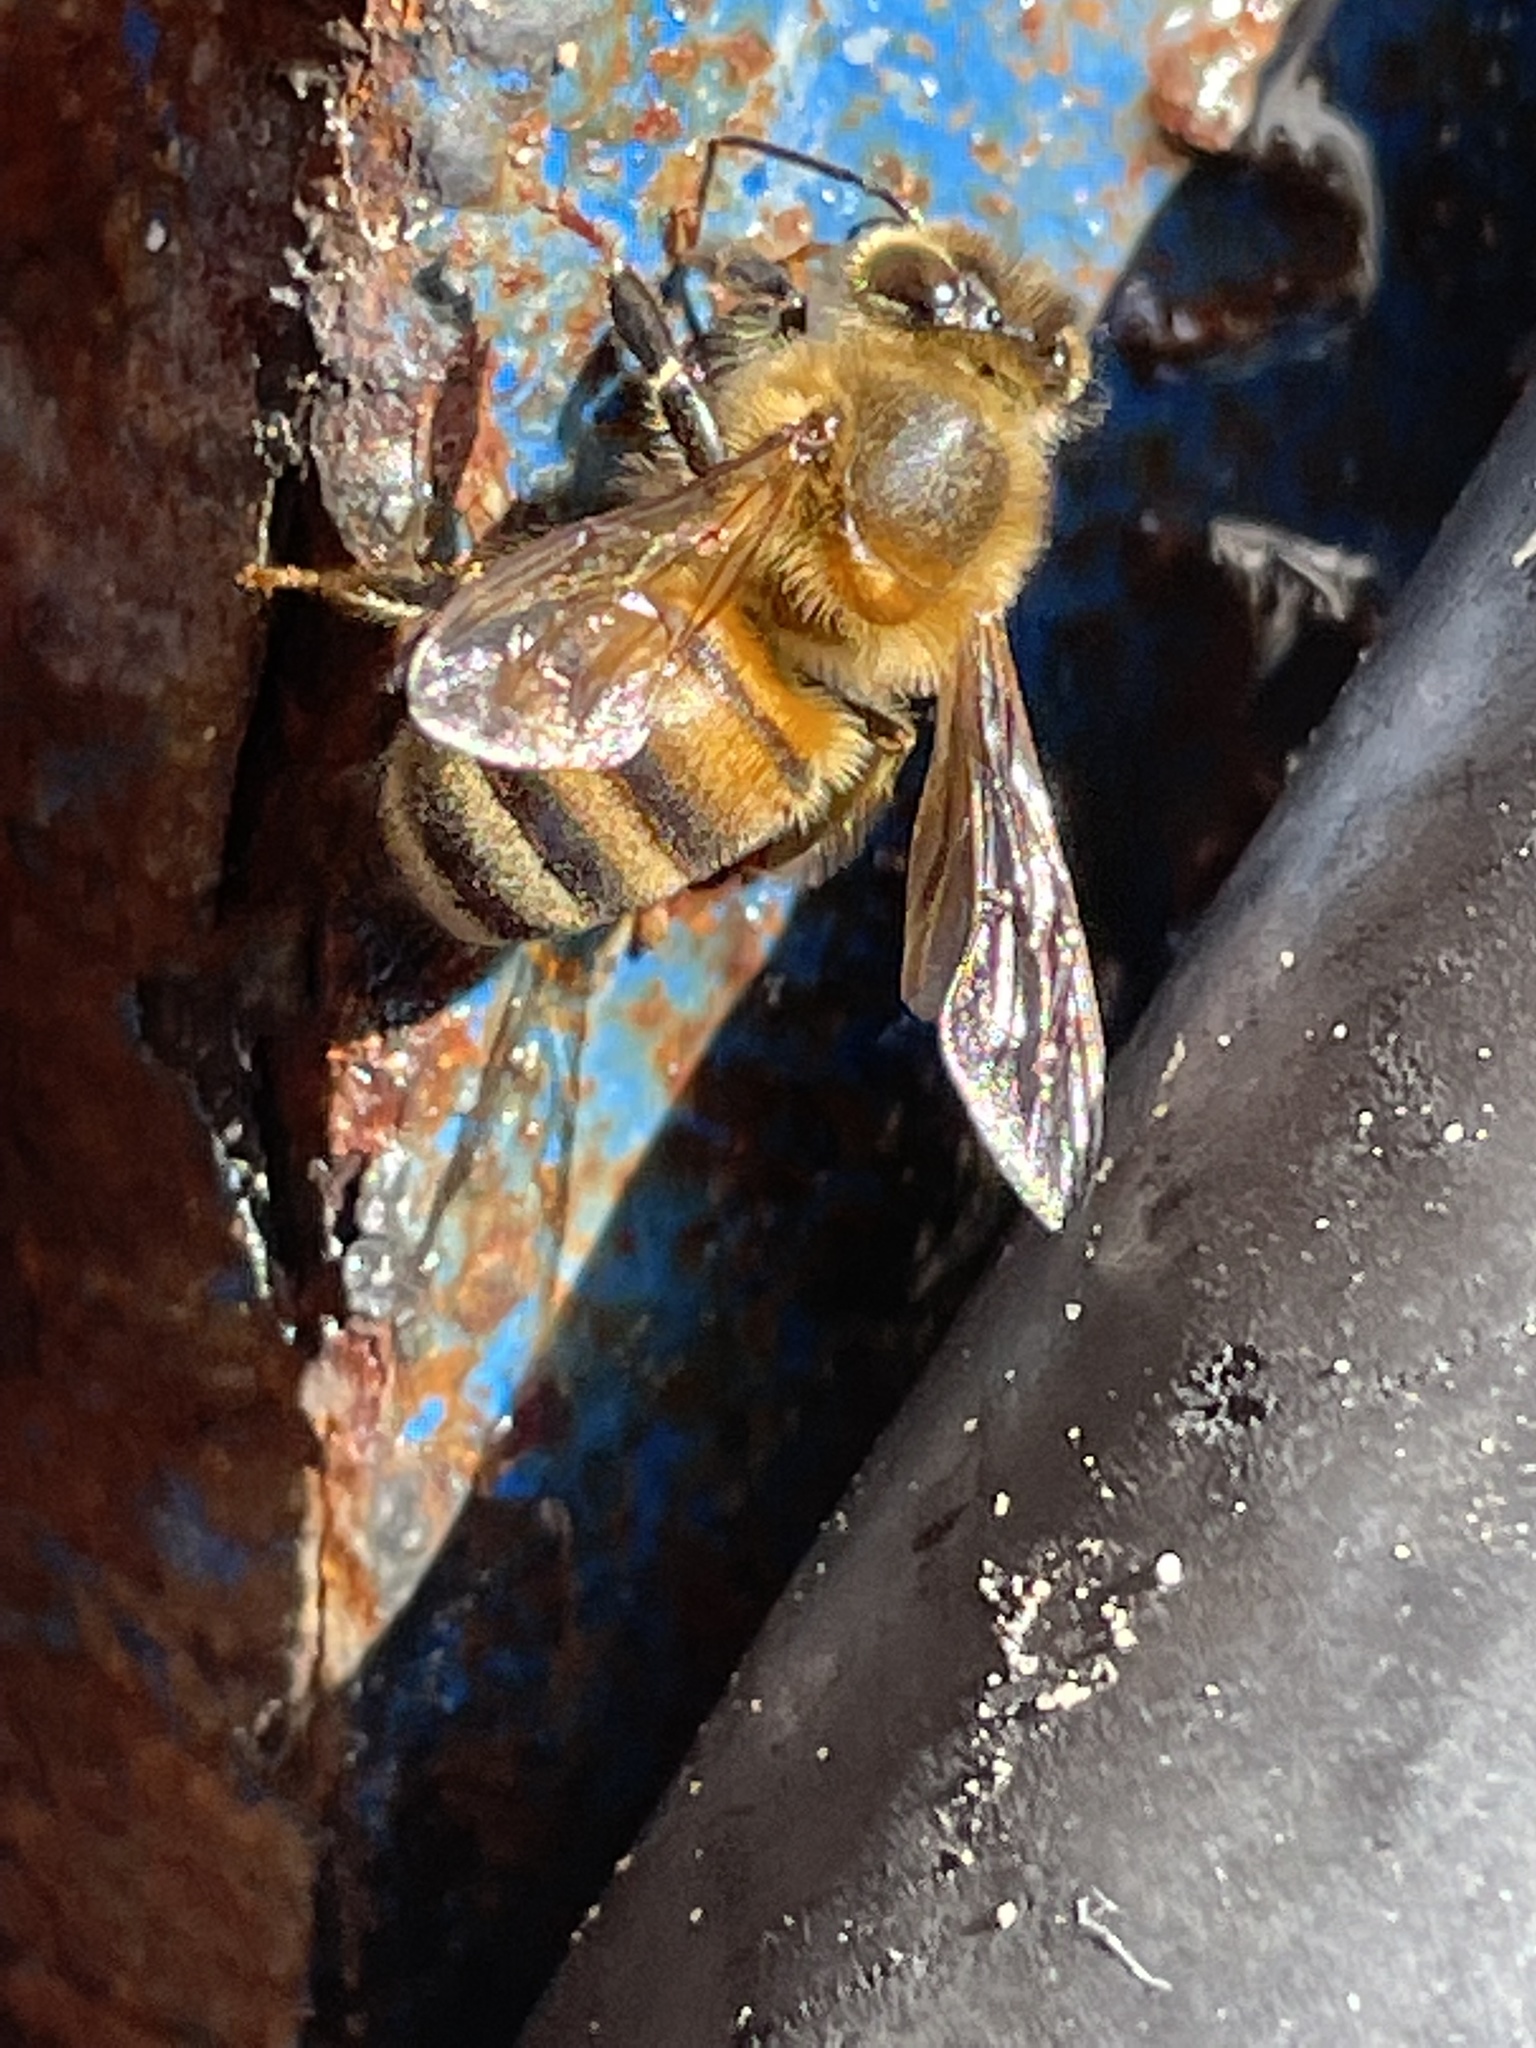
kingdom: Animalia
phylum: Arthropoda
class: Insecta
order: Hymenoptera
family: Apidae
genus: Apis
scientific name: Apis mellifera
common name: Honey bee
